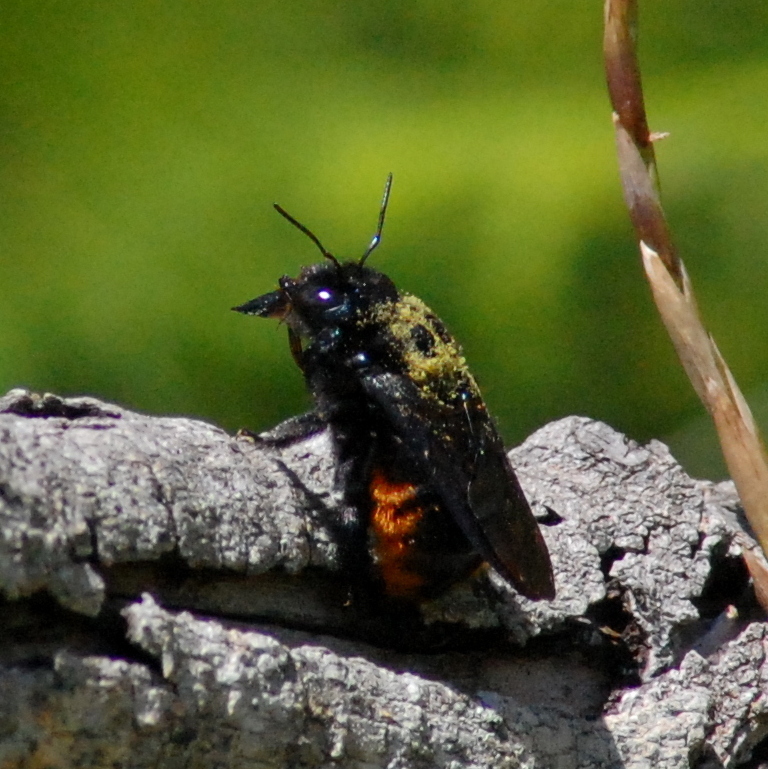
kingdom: Animalia
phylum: Arthropoda
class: Insecta
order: Hymenoptera
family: Apidae
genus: Xylocopa
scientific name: Xylocopa augusti
